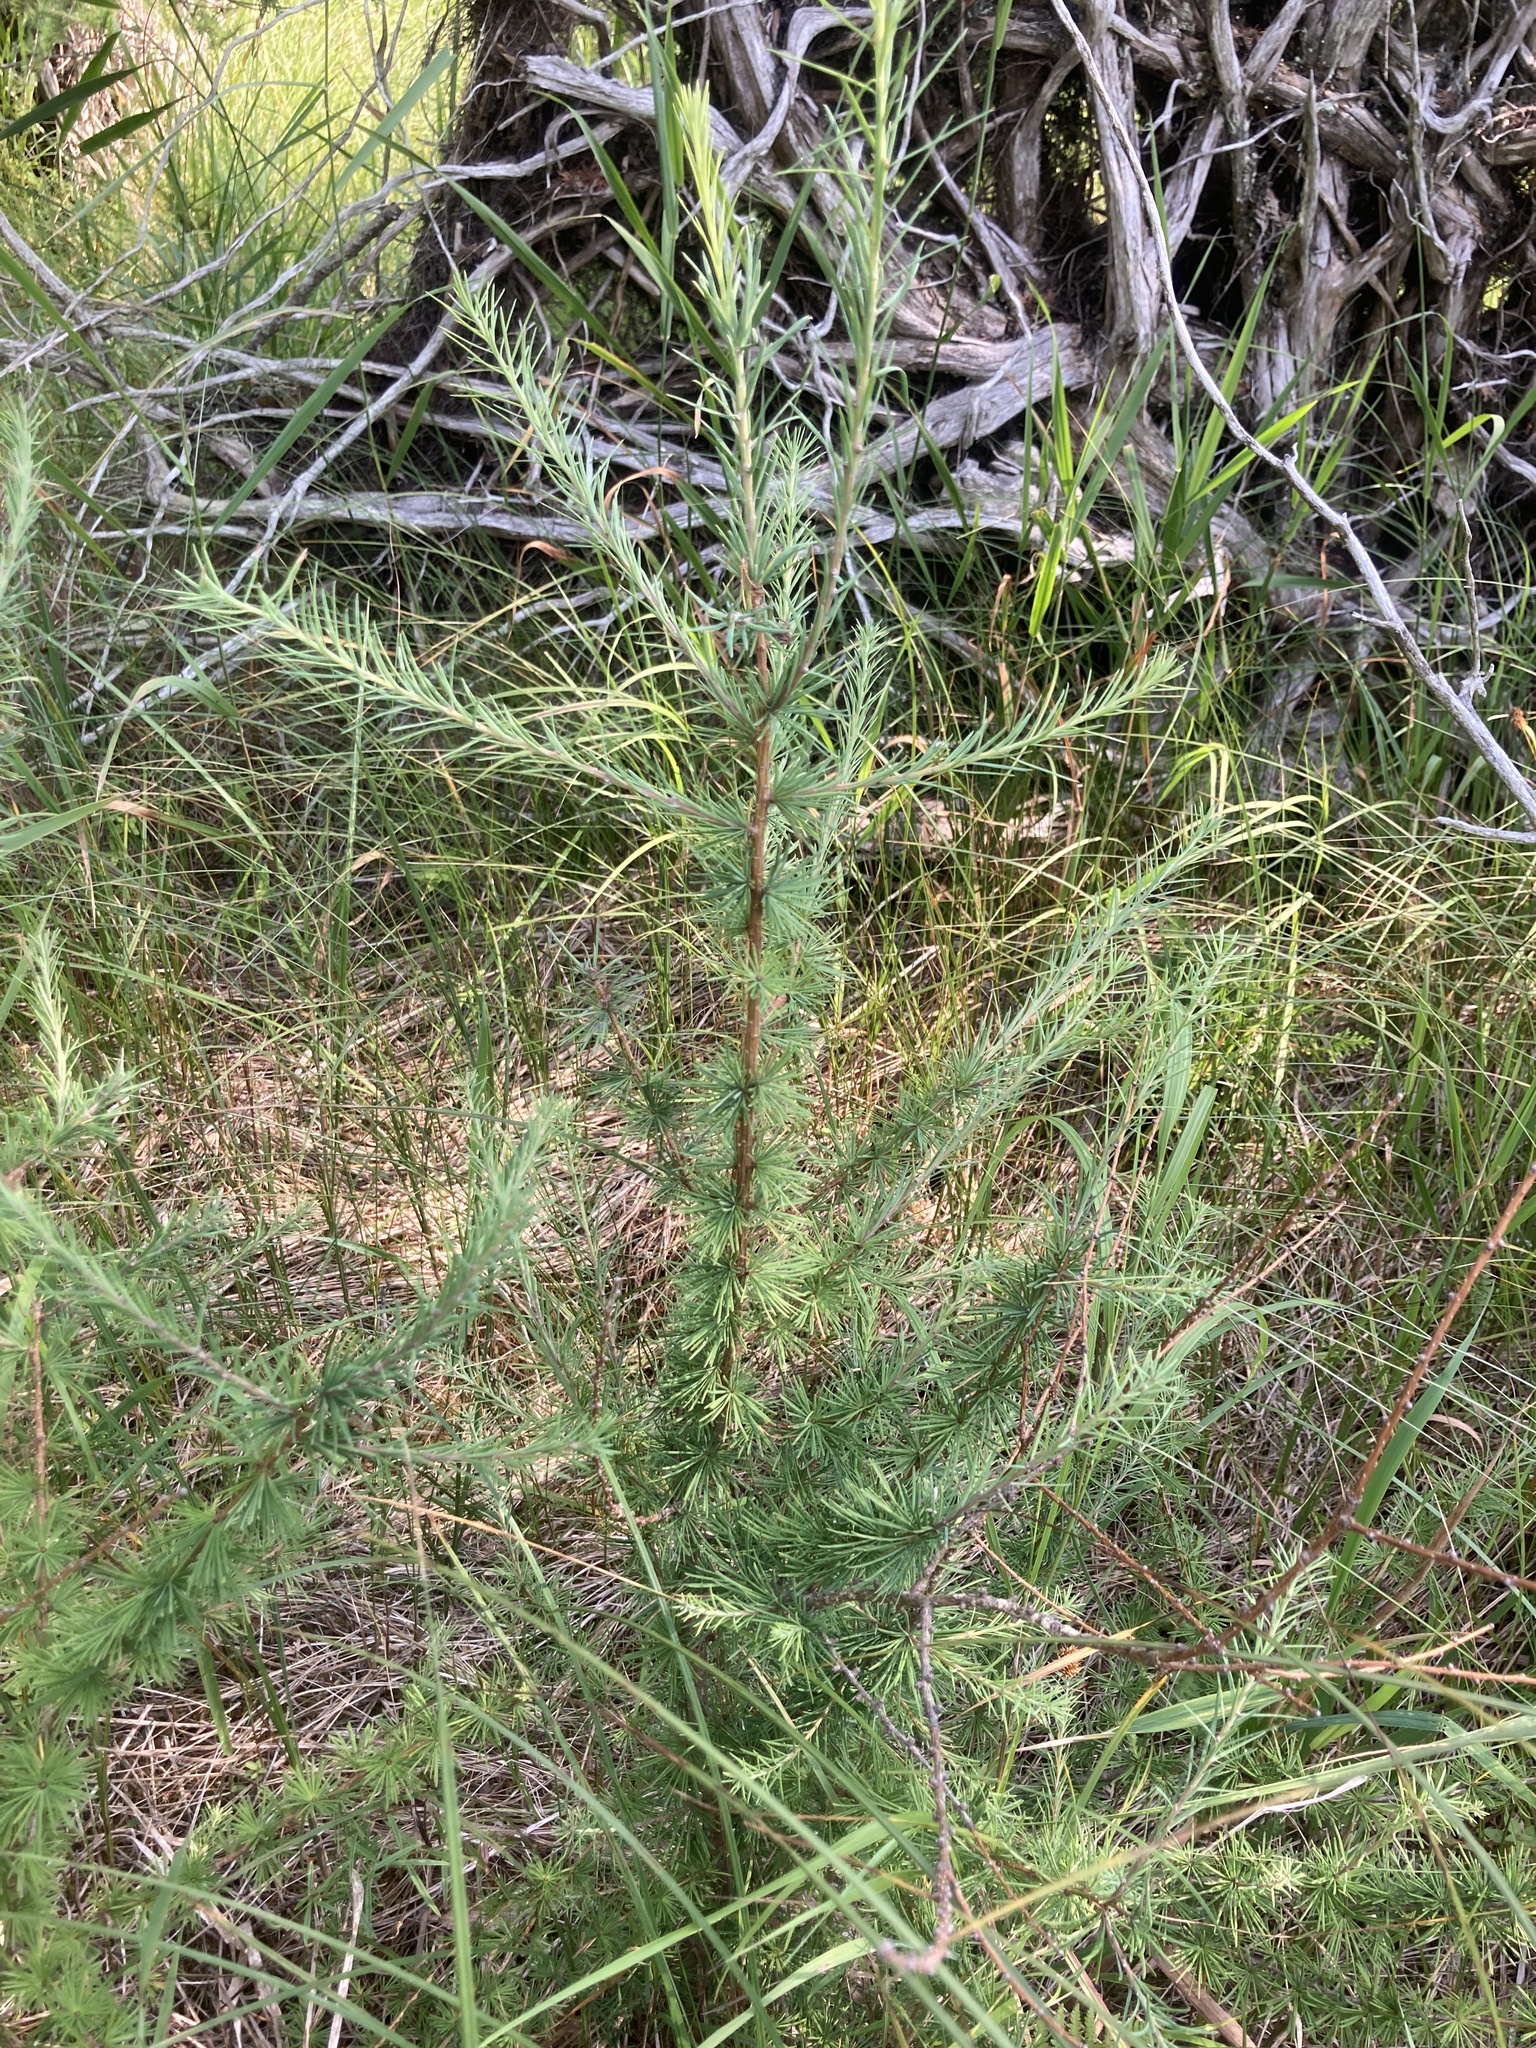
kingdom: Plantae
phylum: Tracheophyta
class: Pinopsida
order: Pinales
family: Pinaceae
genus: Larix
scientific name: Larix laricina
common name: American larch
